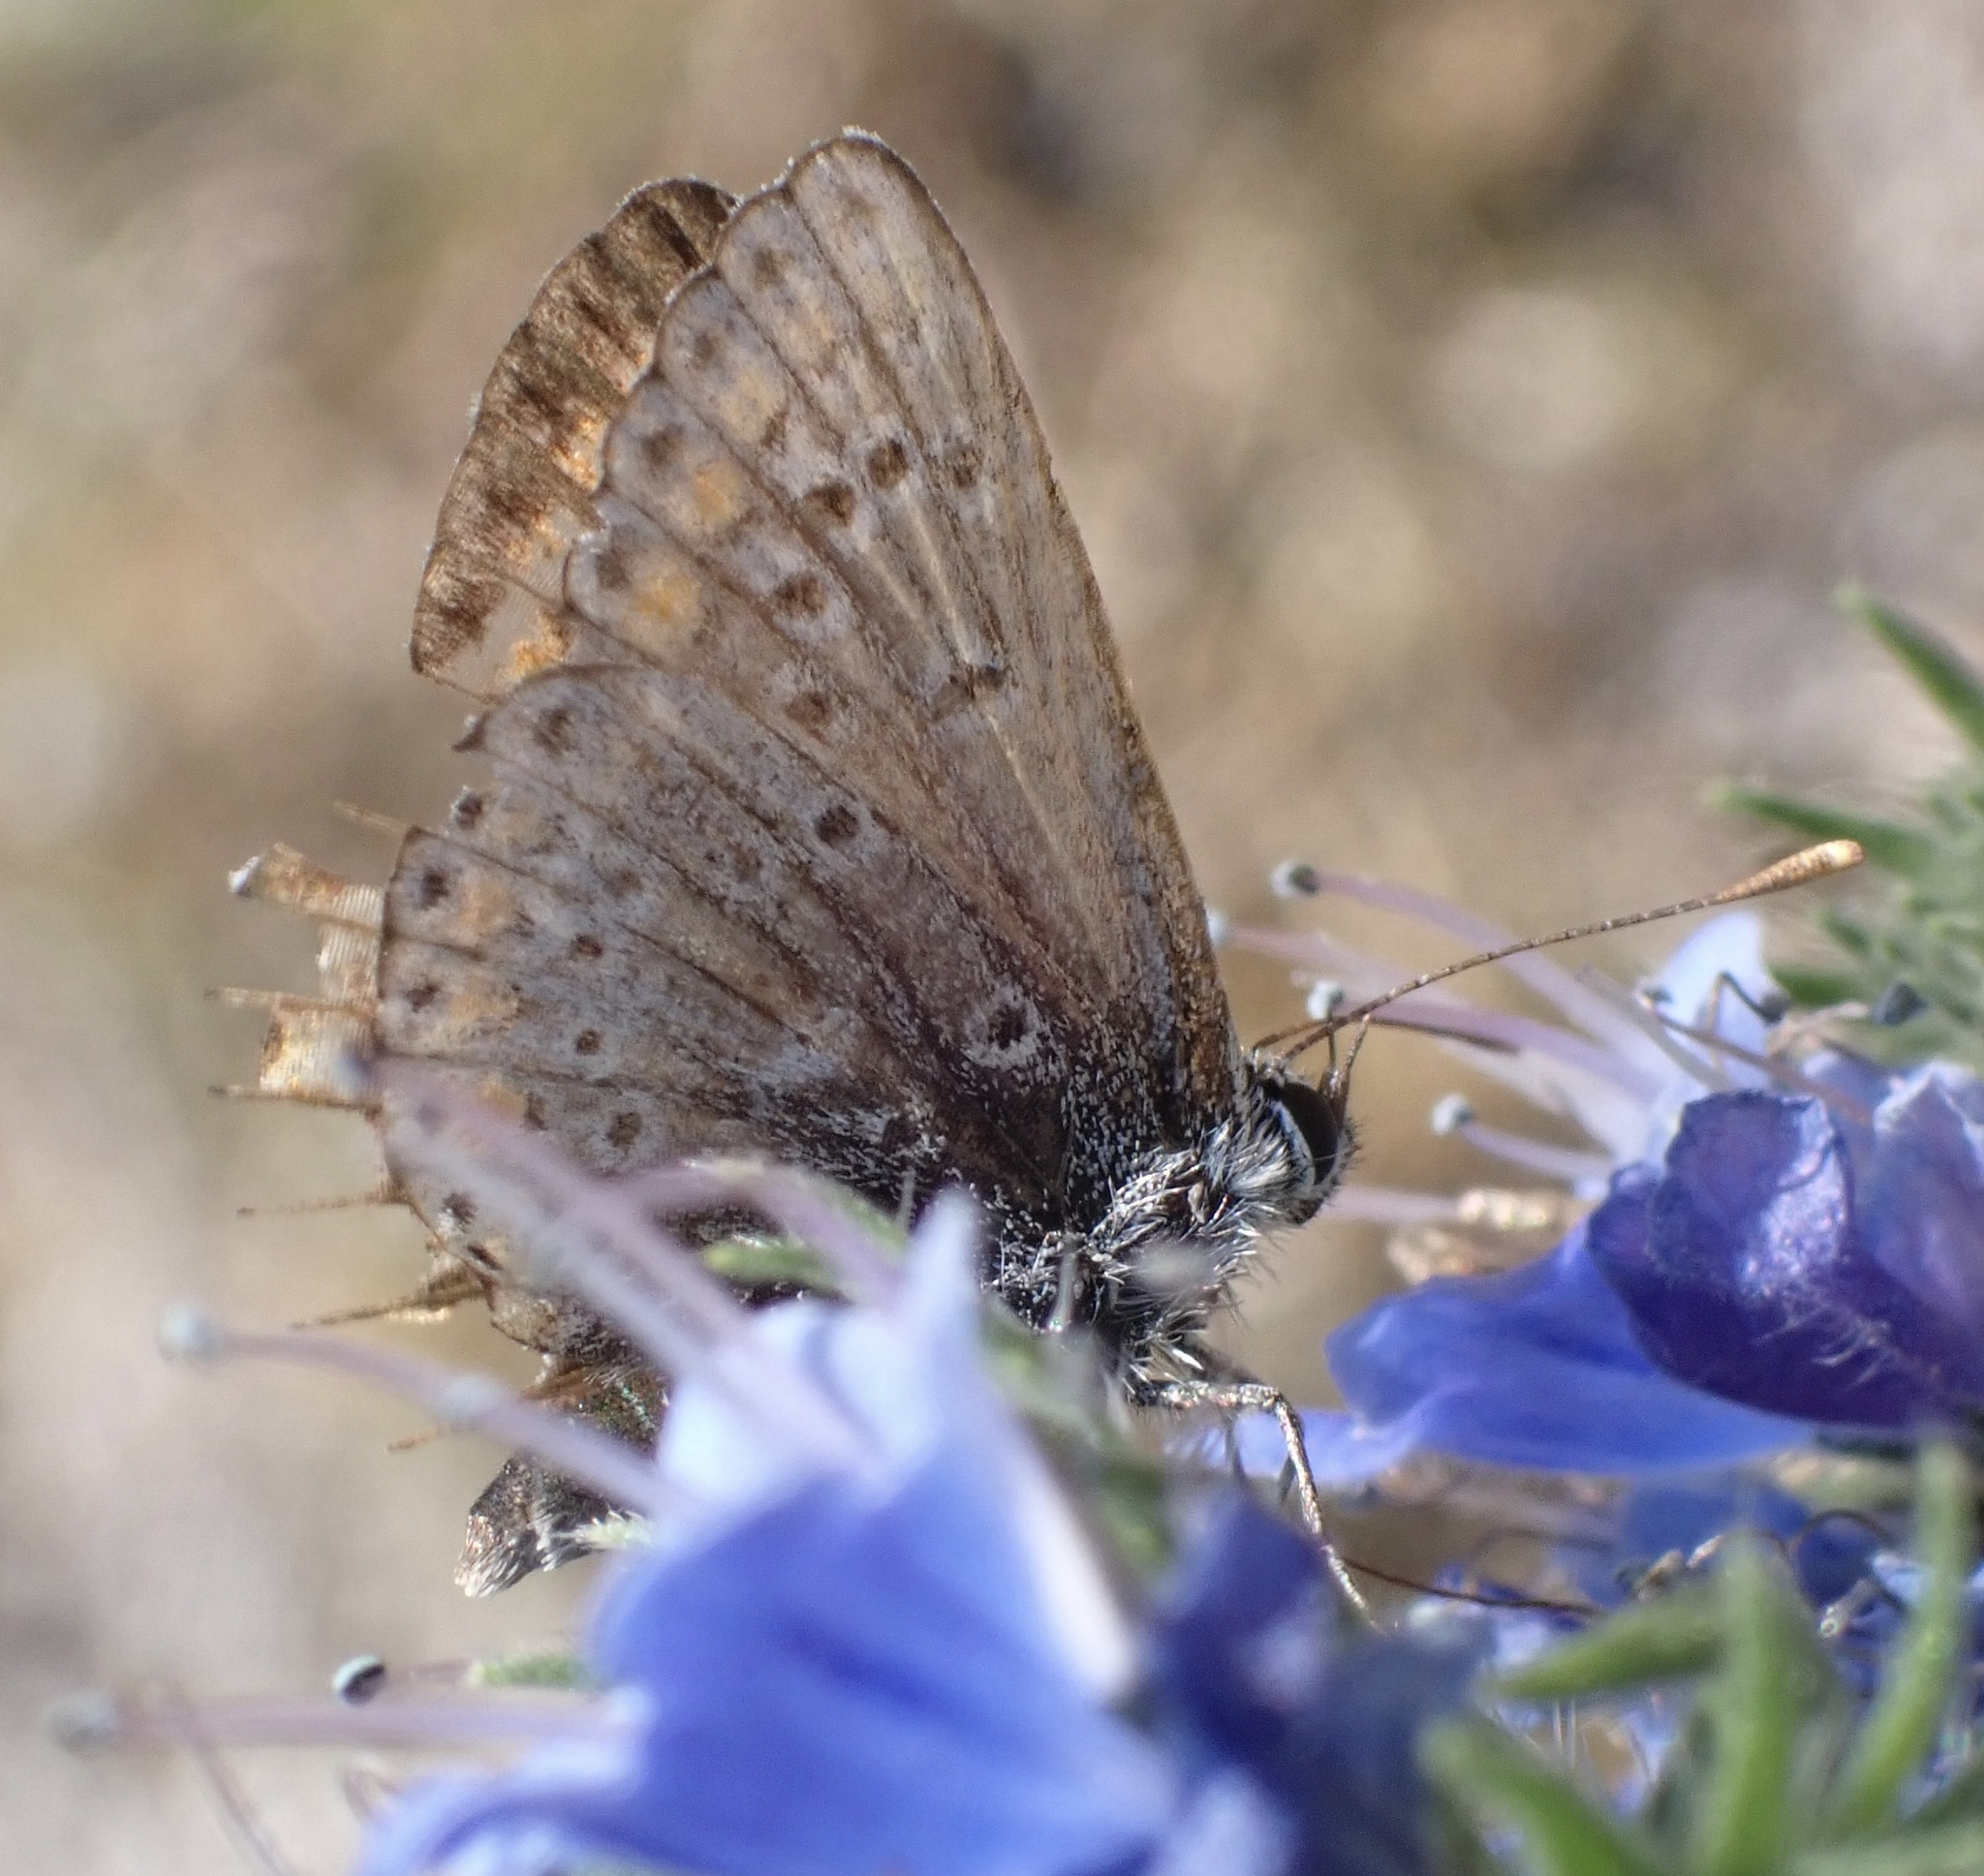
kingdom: Animalia
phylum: Arthropoda
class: Insecta
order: Lepidoptera
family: Lycaenidae
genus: Aricia
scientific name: Aricia agestis
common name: Brown argus
